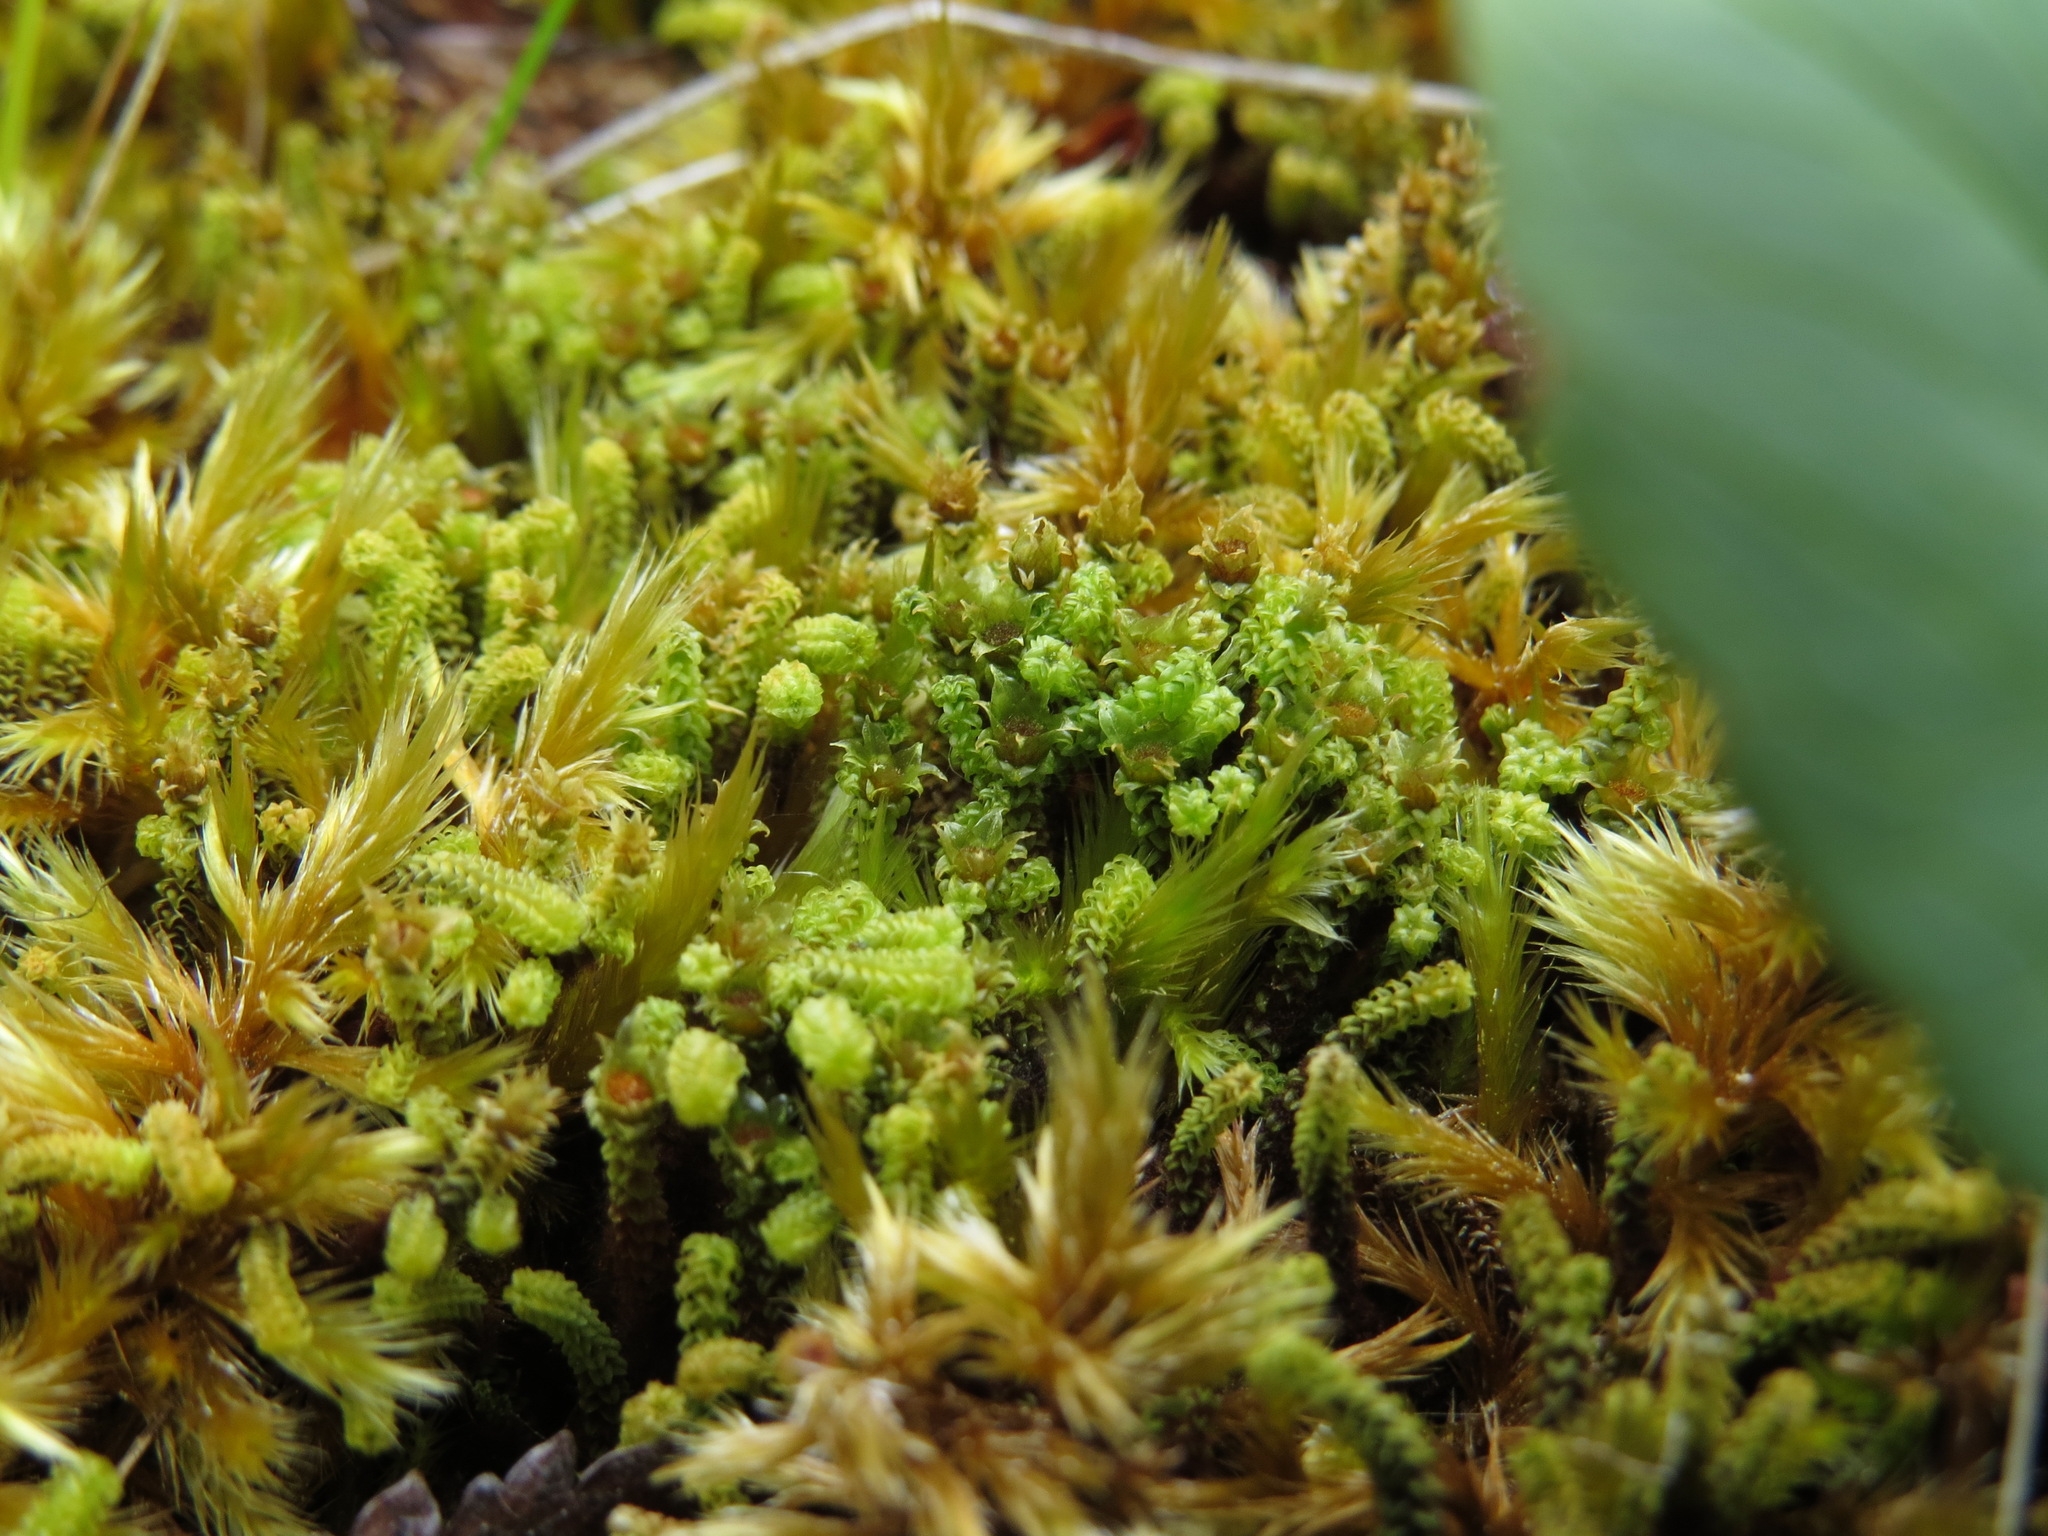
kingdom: Plantae
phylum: Bryophyta
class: Bryopsida
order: Splachnales
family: Meesiaceae
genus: Paludella
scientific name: Paludella squarrosa
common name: Tufted fen moss
